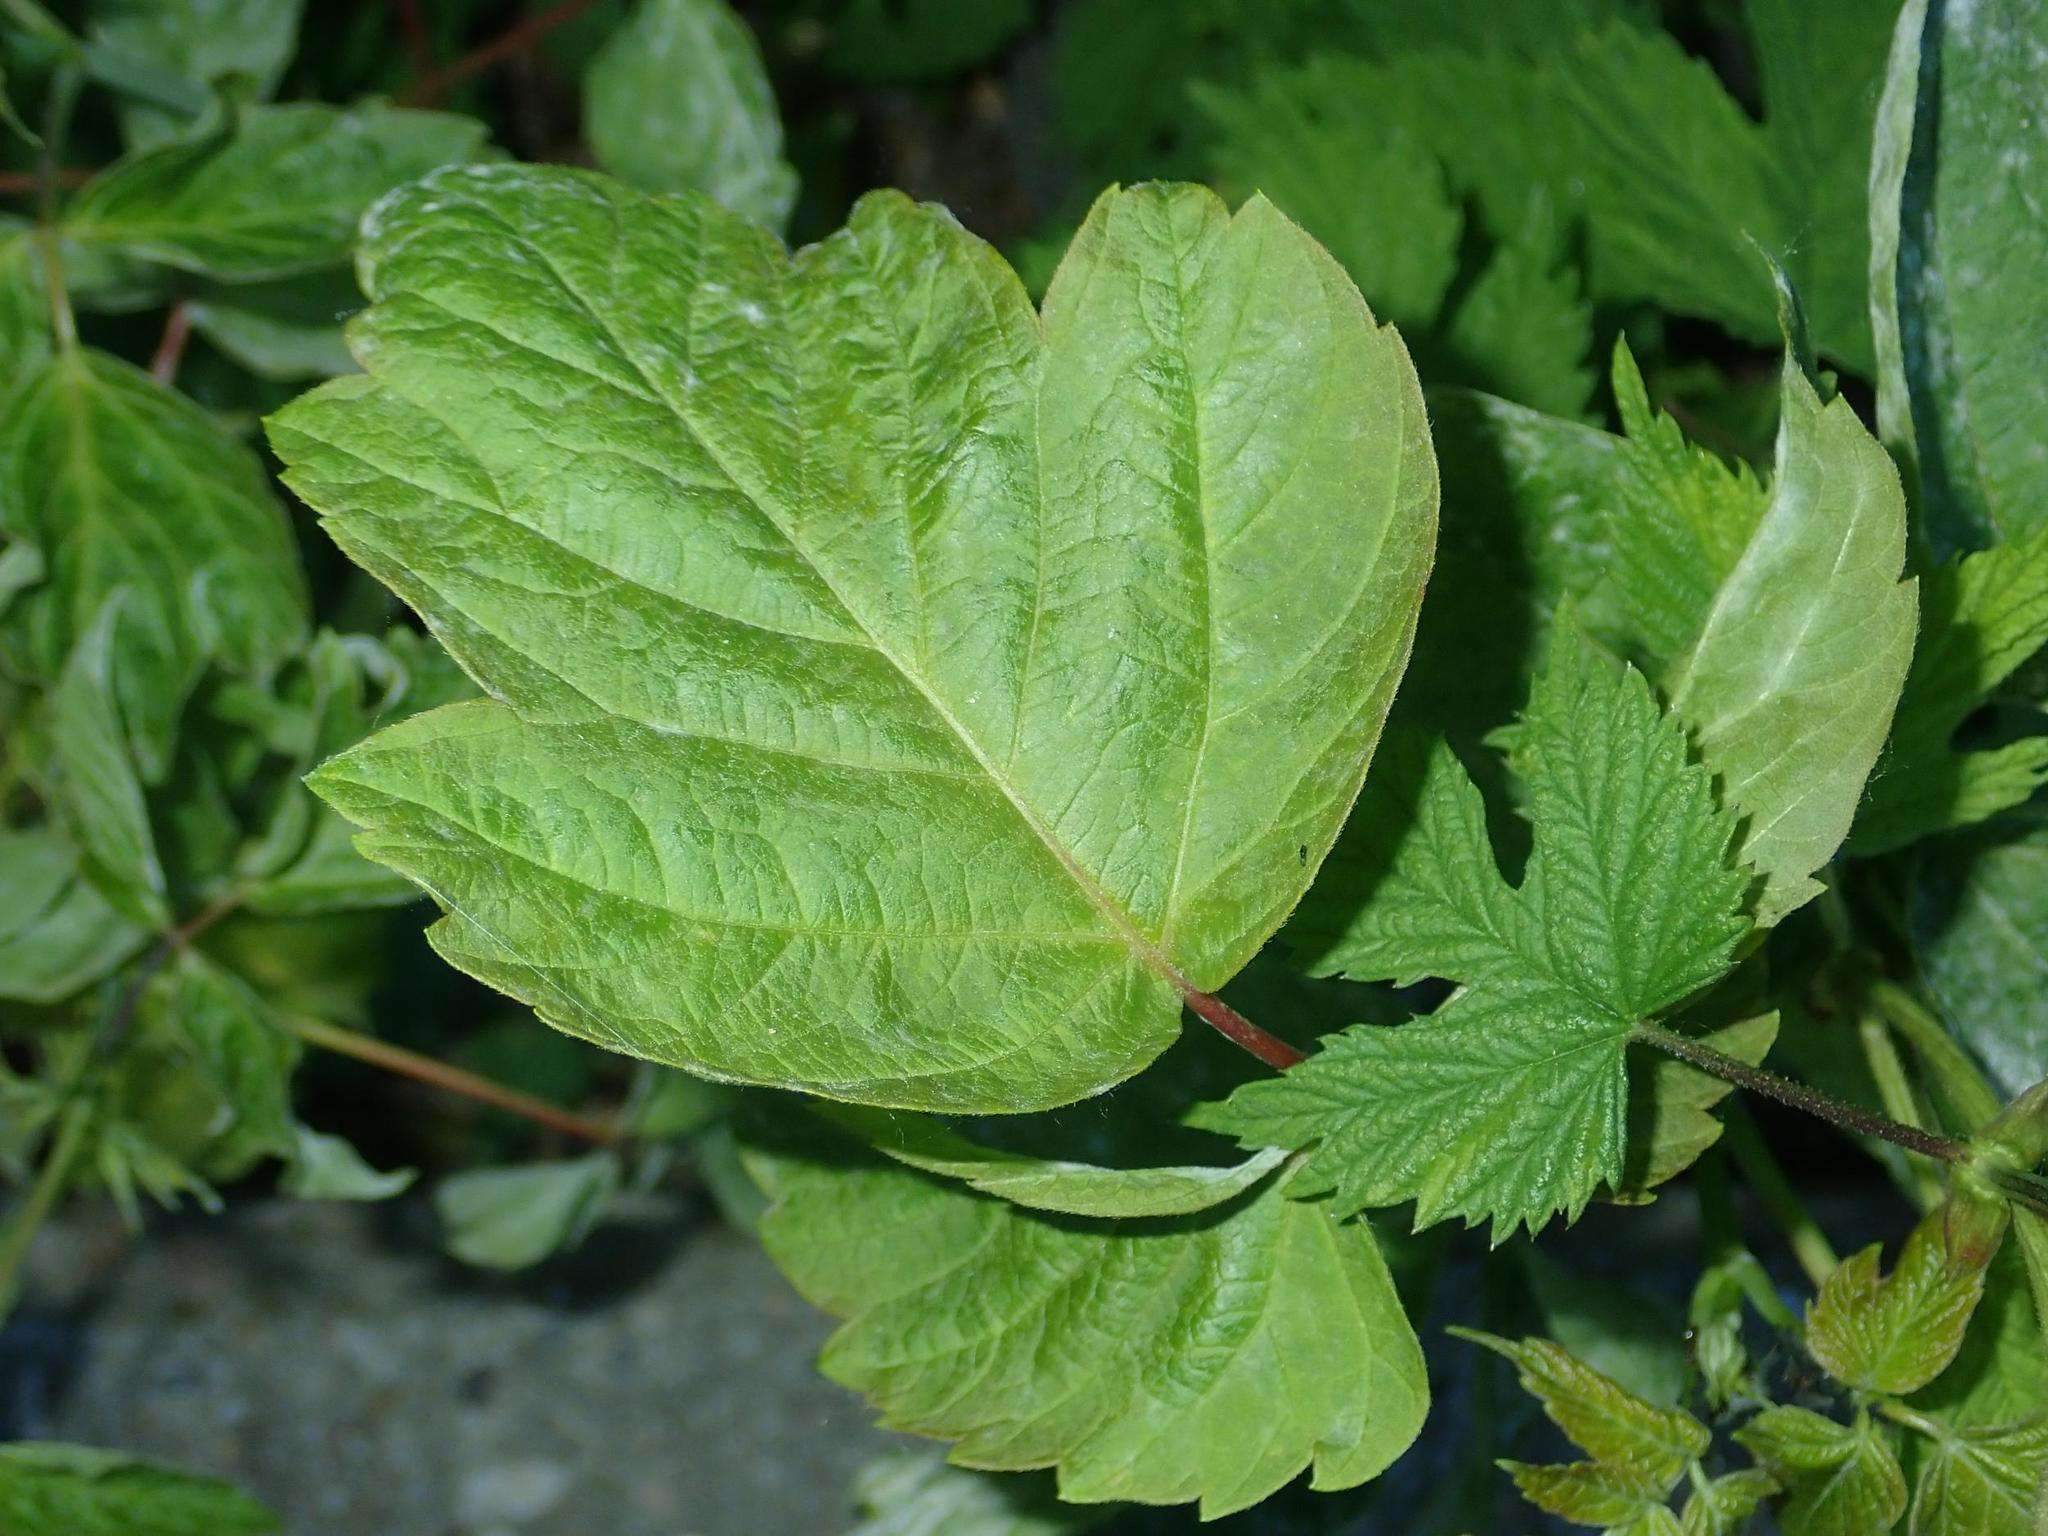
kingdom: Plantae
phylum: Tracheophyta
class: Magnoliopsida
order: Sapindales
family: Sapindaceae
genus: Acer
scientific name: Acer negundo
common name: Ashleaf maple
